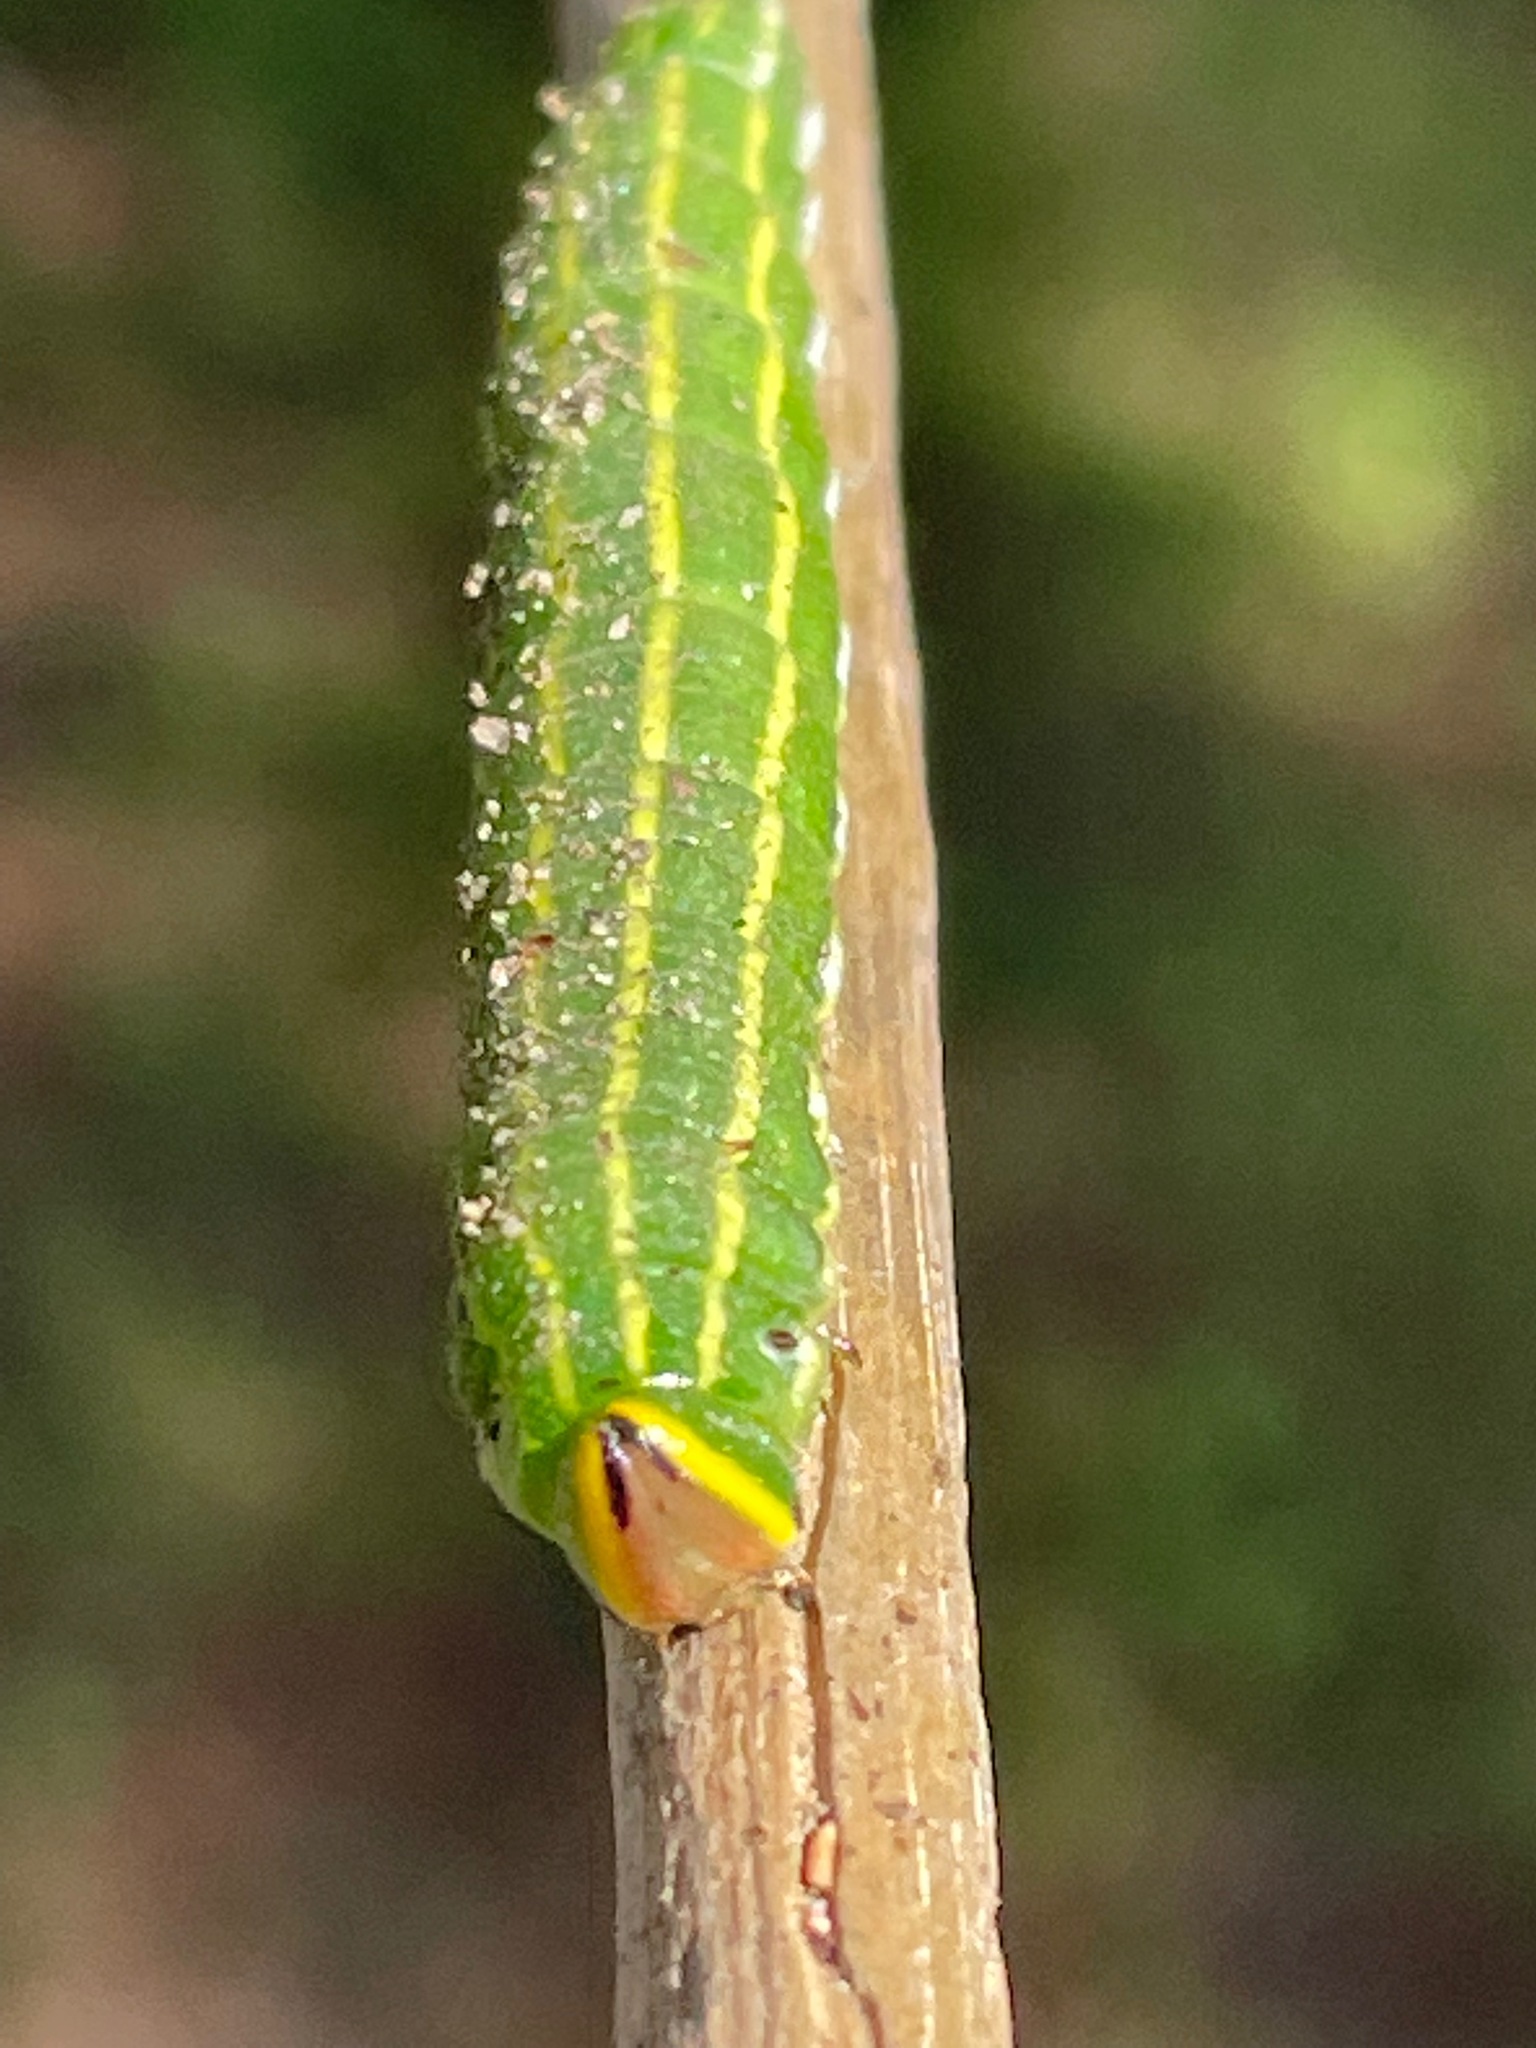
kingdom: Animalia
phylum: Arthropoda
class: Insecta
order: Lepidoptera
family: Sphingidae
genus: Lapara
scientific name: Lapara bombycoides
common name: Northern pine sphinx
